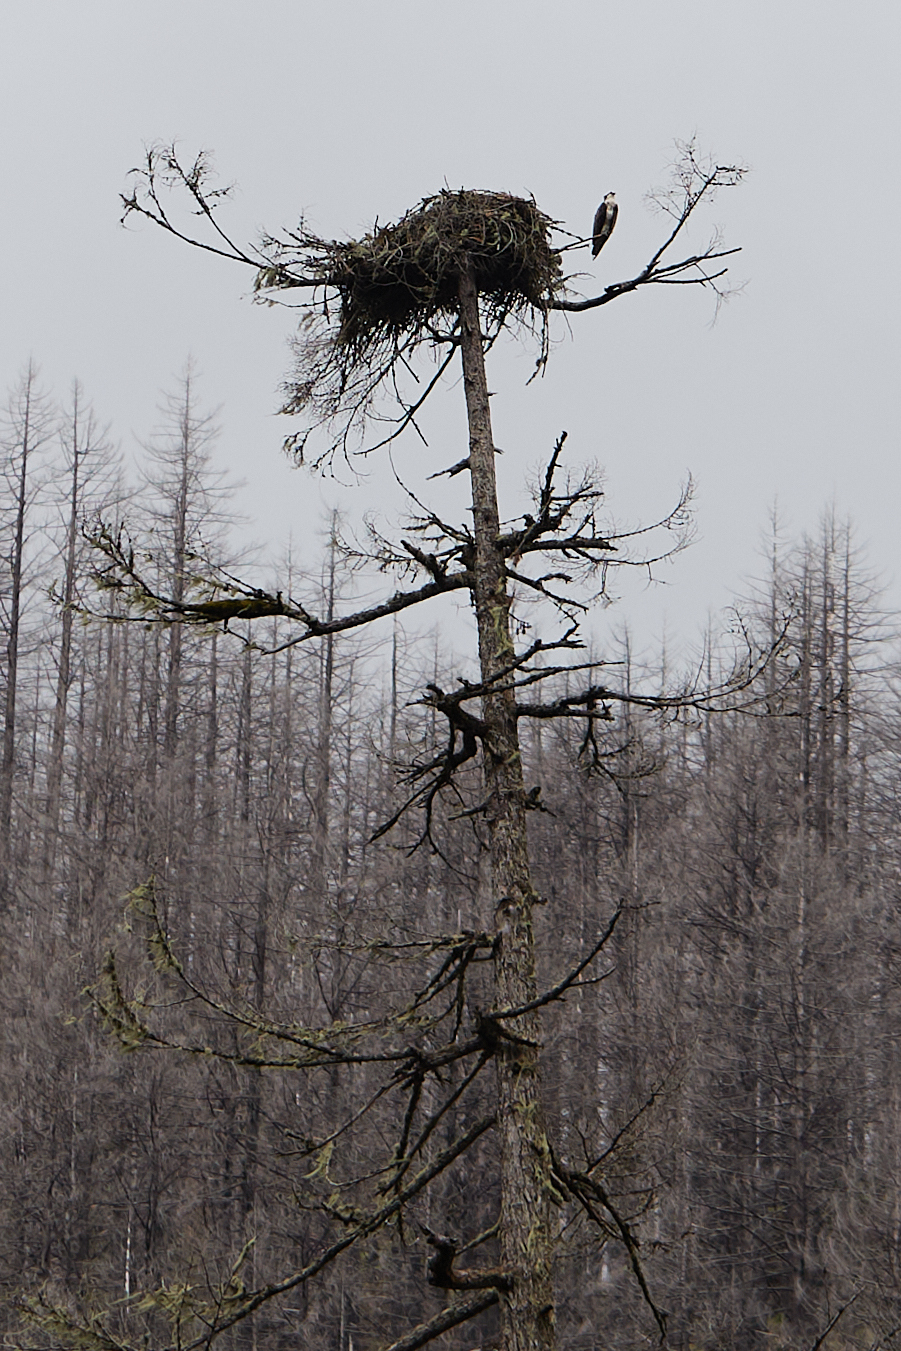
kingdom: Animalia
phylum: Chordata
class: Aves
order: Accipitriformes
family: Pandionidae
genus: Pandion
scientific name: Pandion haliaetus
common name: Osprey
